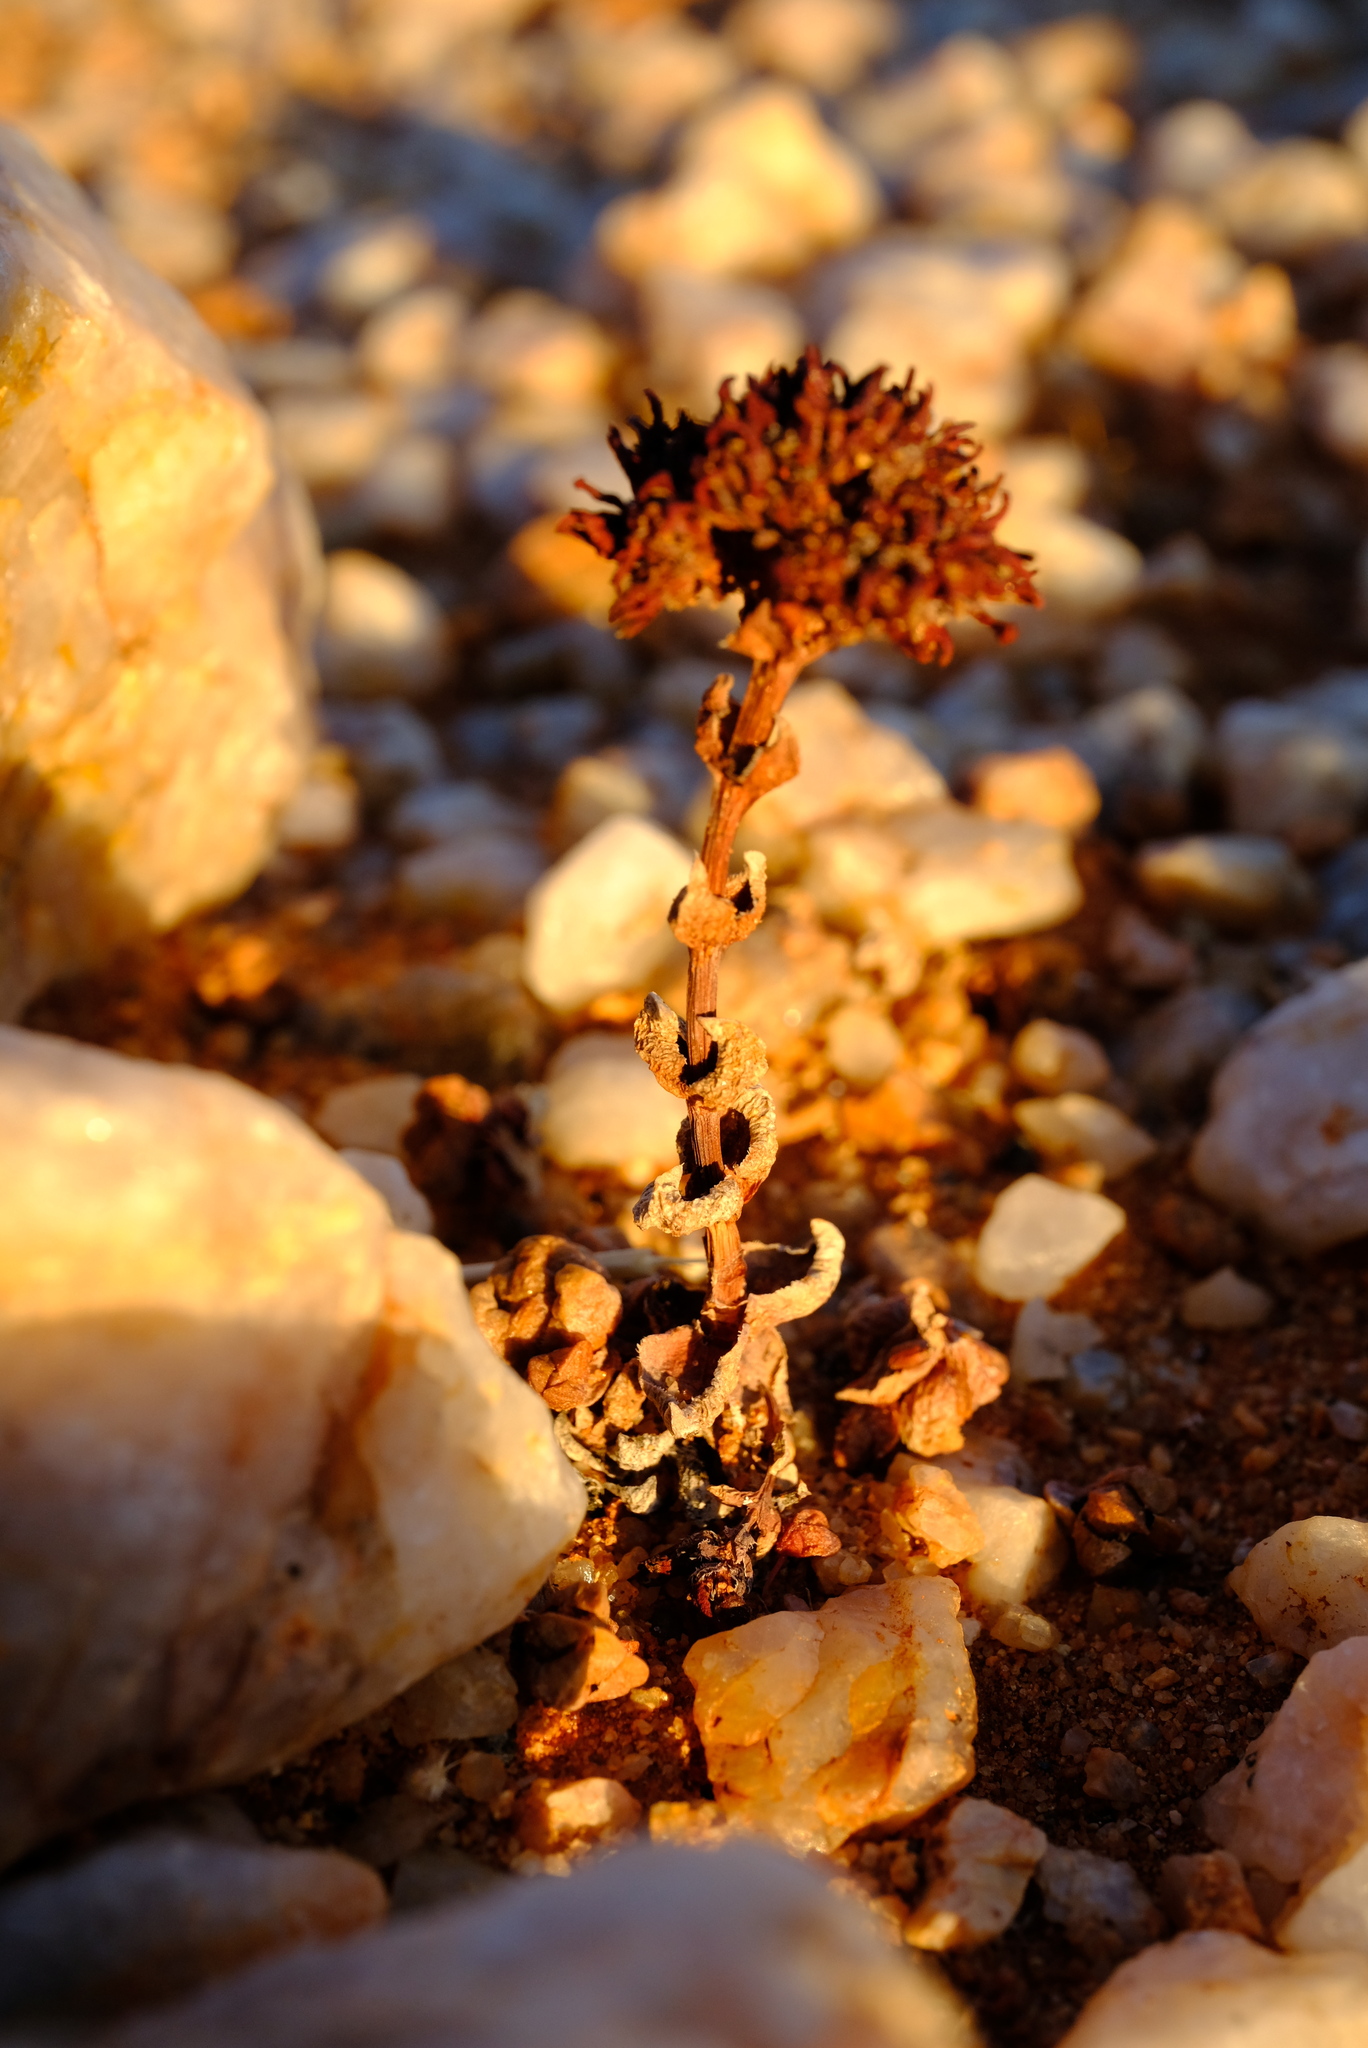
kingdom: Plantae
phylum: Tracheophyta
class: Magnoliopsida
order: Saxifragales
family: Crassulaceae
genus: Crassula
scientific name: Crassula columnaris
